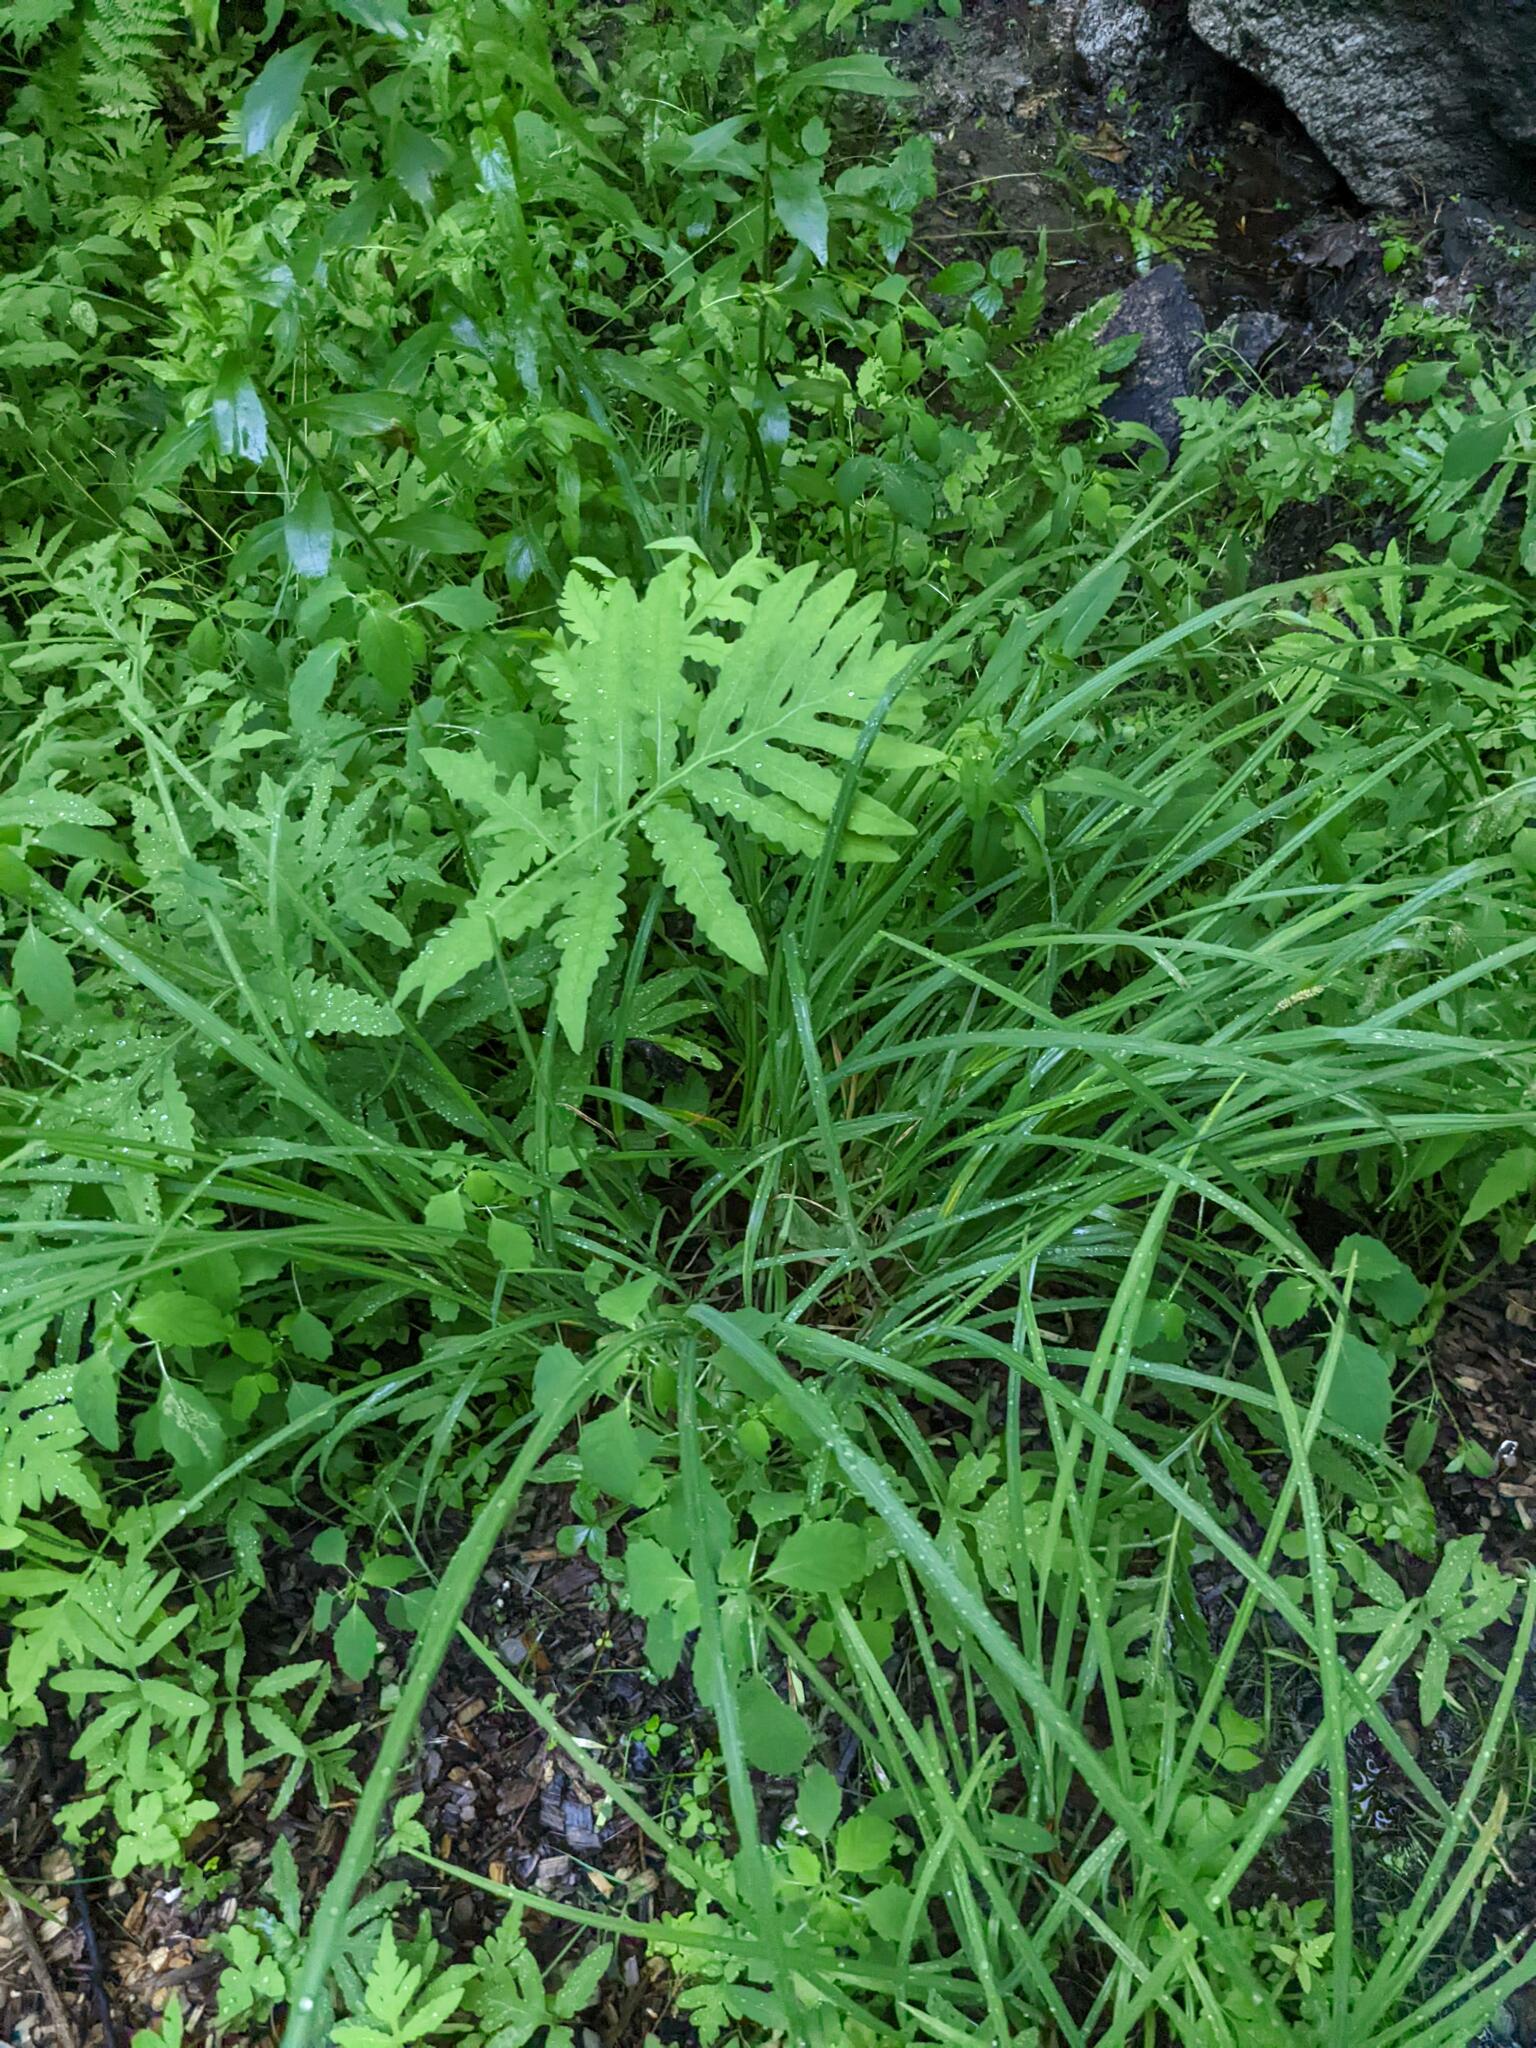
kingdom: Plantae
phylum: Tracheophyta
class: Polypodiopsida
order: Polypodiales
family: Onocleaceae
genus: Onoclea
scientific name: Onoclea sensibilis
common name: Sensitive fern
